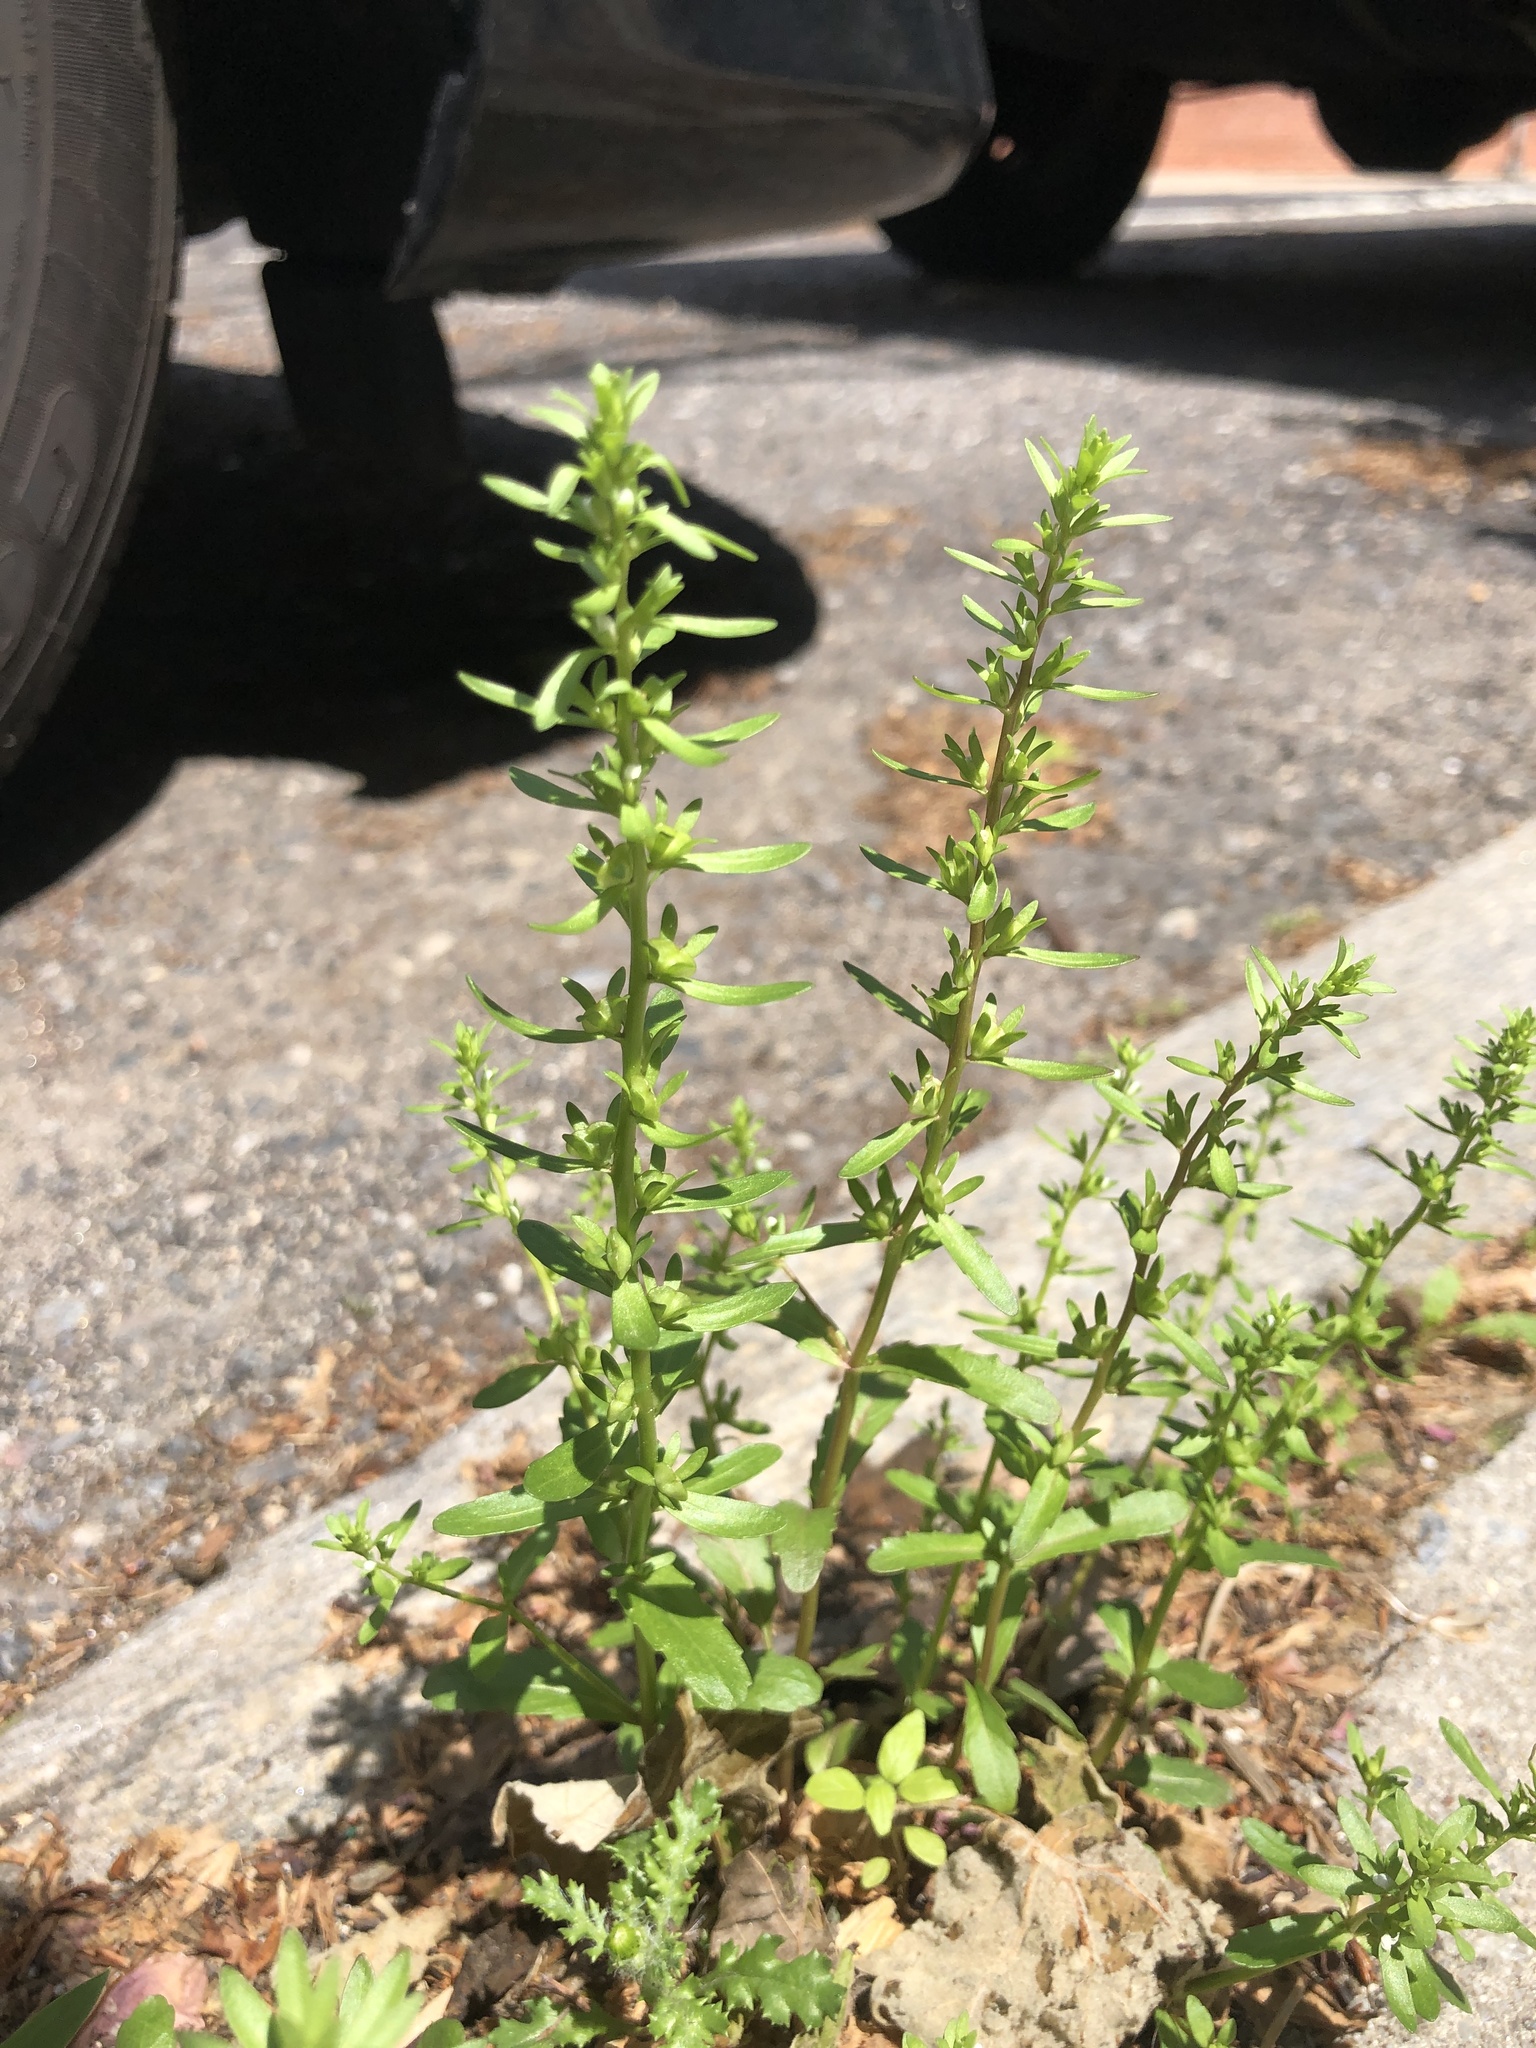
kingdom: Plantae
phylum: Tracheophyta
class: Magnoliopsida
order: Lamiales
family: Plantaginaceae
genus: Veronica
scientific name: Veronica peregrina
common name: Neckweed
